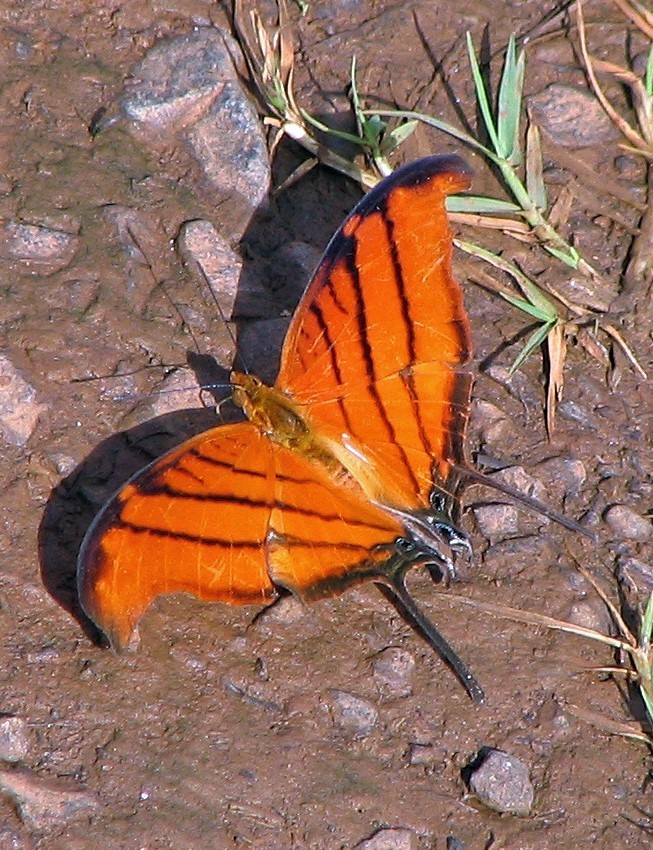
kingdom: Animalia
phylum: Arthropoda
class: Insecta
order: Lepidoptera
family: Nymphalidae
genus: Marpesia
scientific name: Marpesia petreus
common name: Red dagger wing
